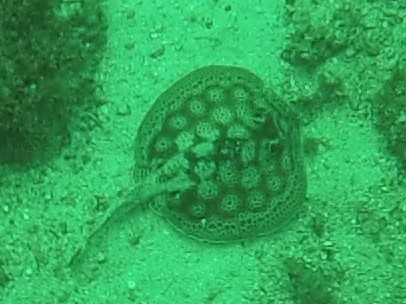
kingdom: Animalia
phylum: Chordata
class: Elasmobranchii
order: Myliobatiformes
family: Urotrygonidae
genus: Urobatis
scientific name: Urobatis pardalis
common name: Leopard round ray
